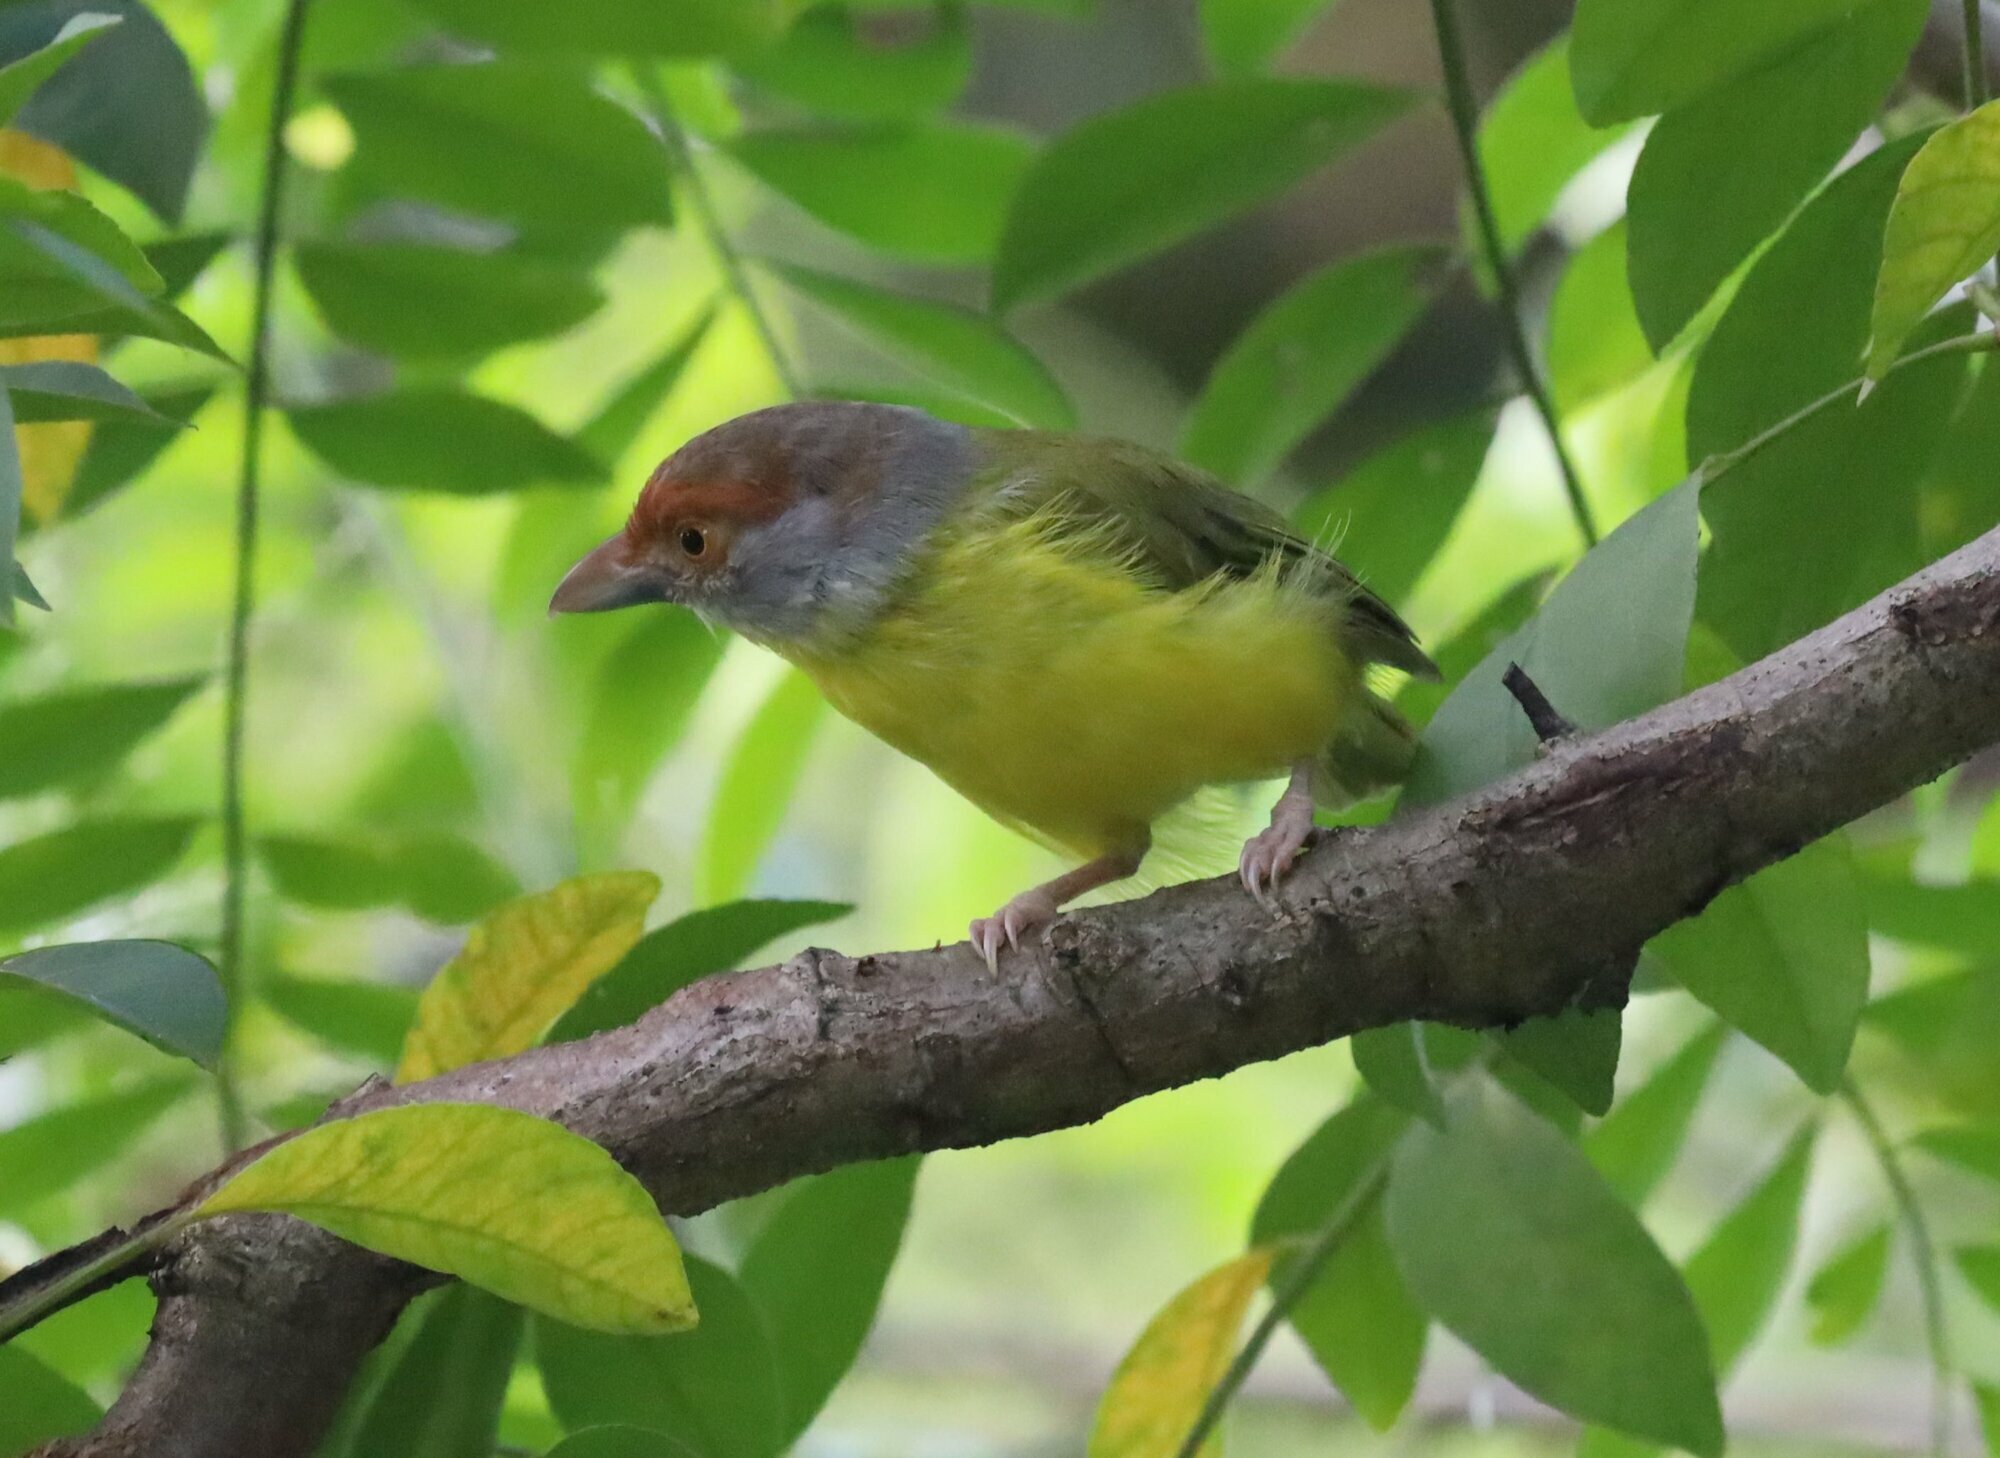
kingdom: Animalia
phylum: Chordata
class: Aves
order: Passeriformes
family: Vireonidae
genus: Cyclarhis
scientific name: Cyclarhis gujanensis
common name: Rufous-browed peppershrike
